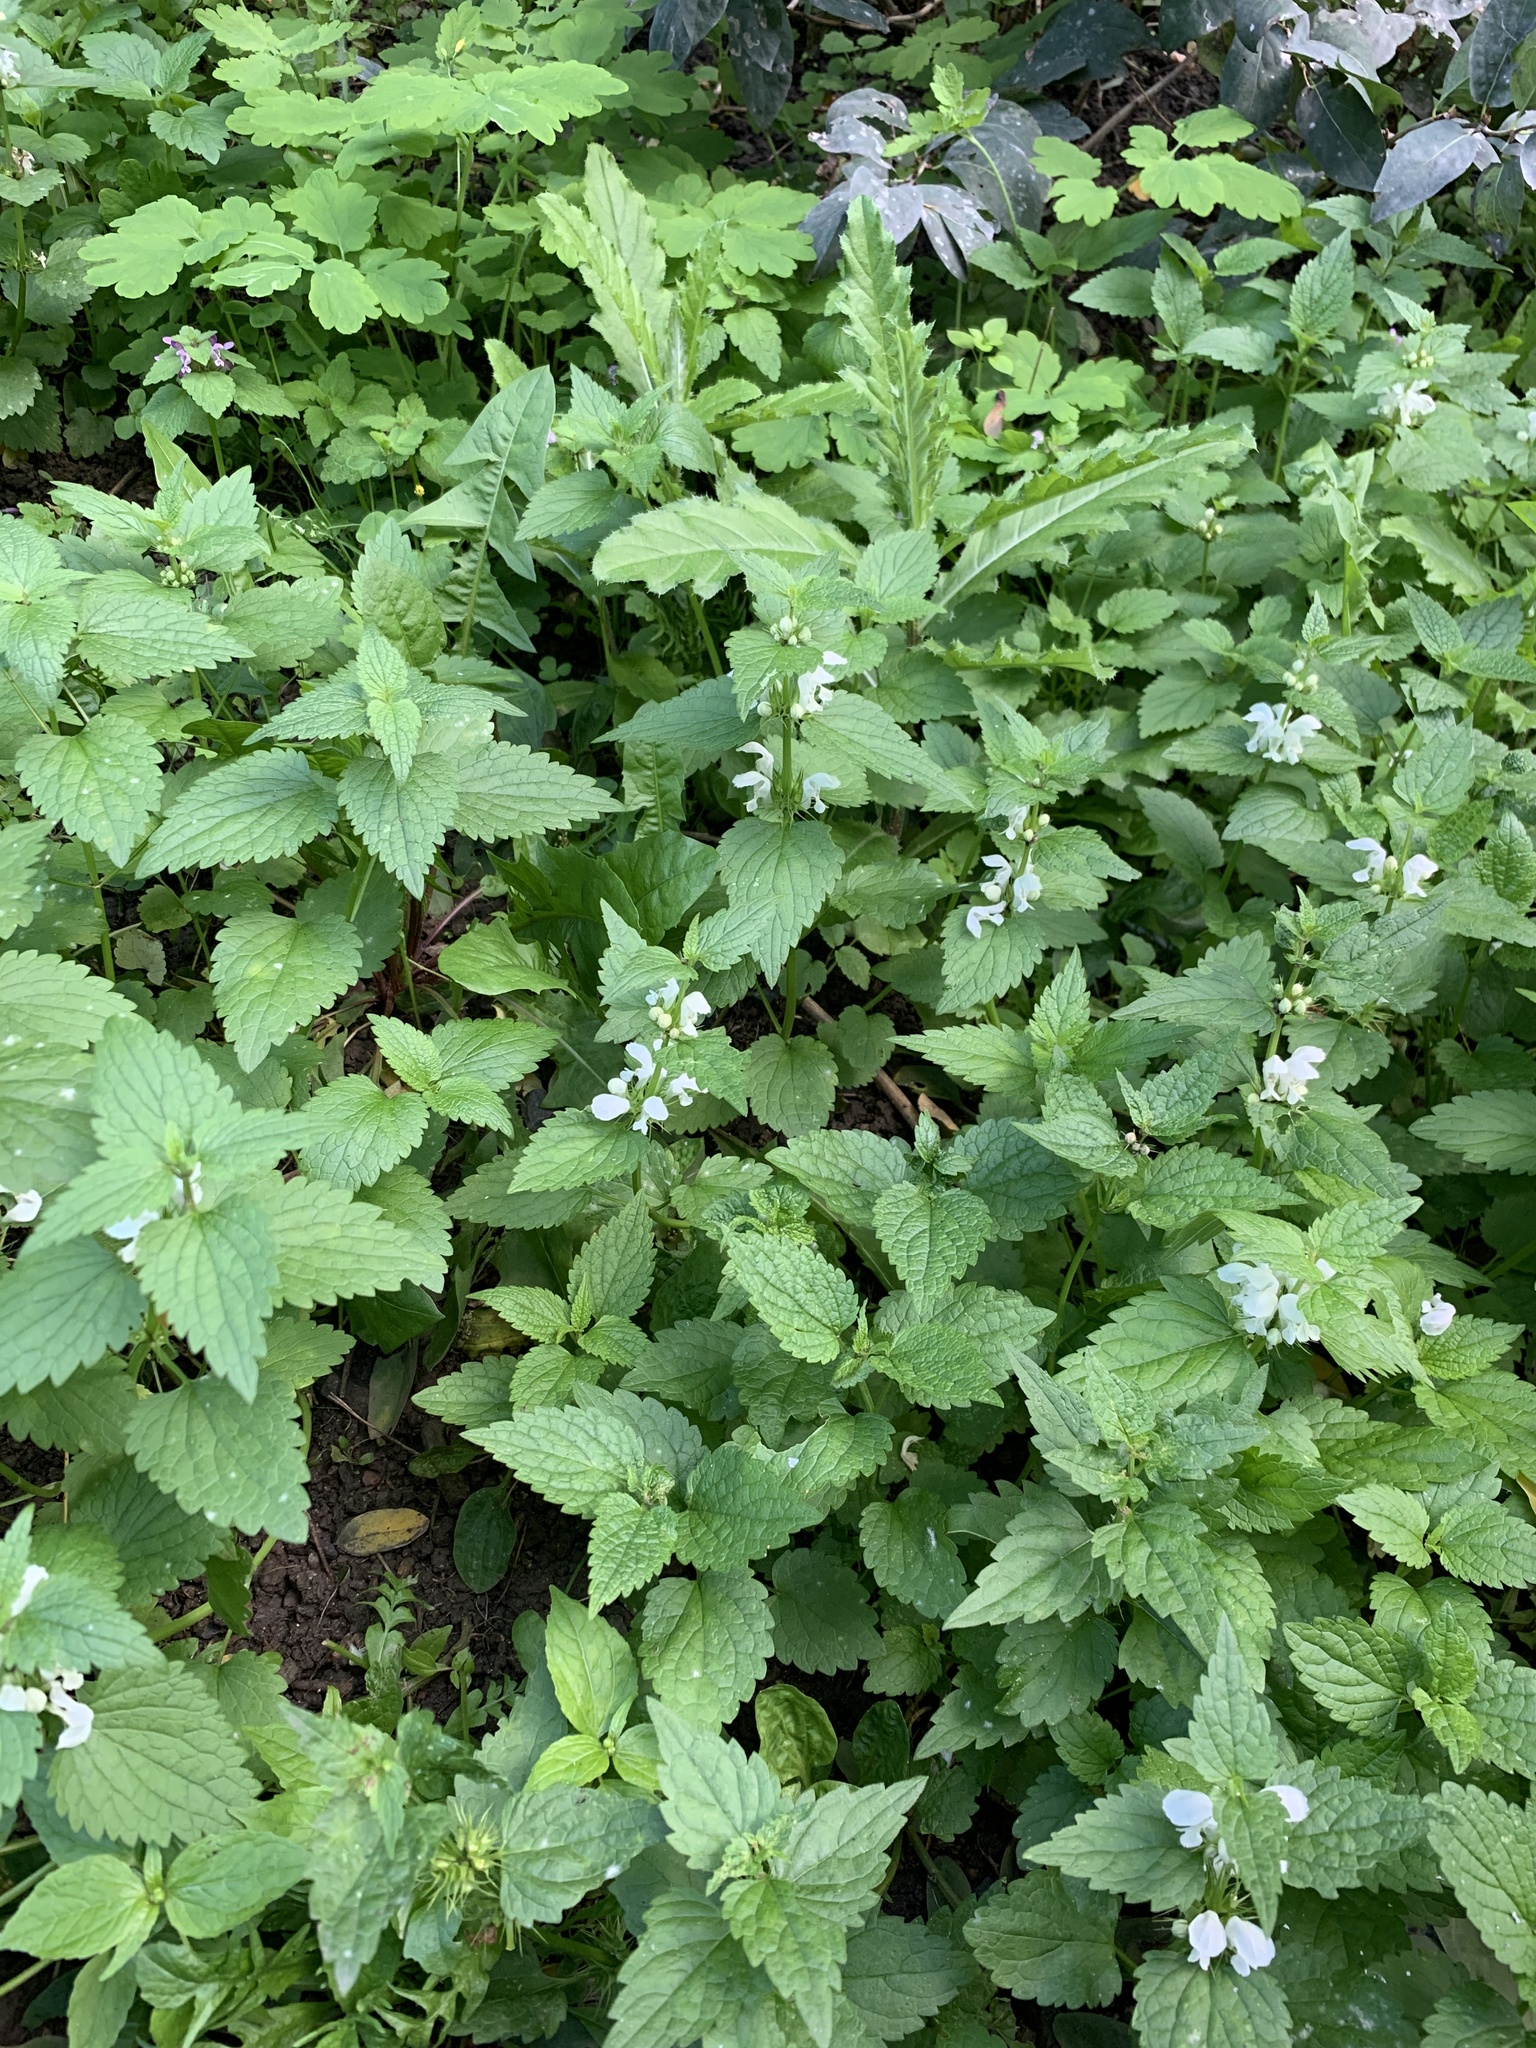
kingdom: Plantae
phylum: Tracheophyta
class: Magnoliopsida
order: Lamiales
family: Lamiaceae
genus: Lamium
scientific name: Lamium album
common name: White dead-nettle
